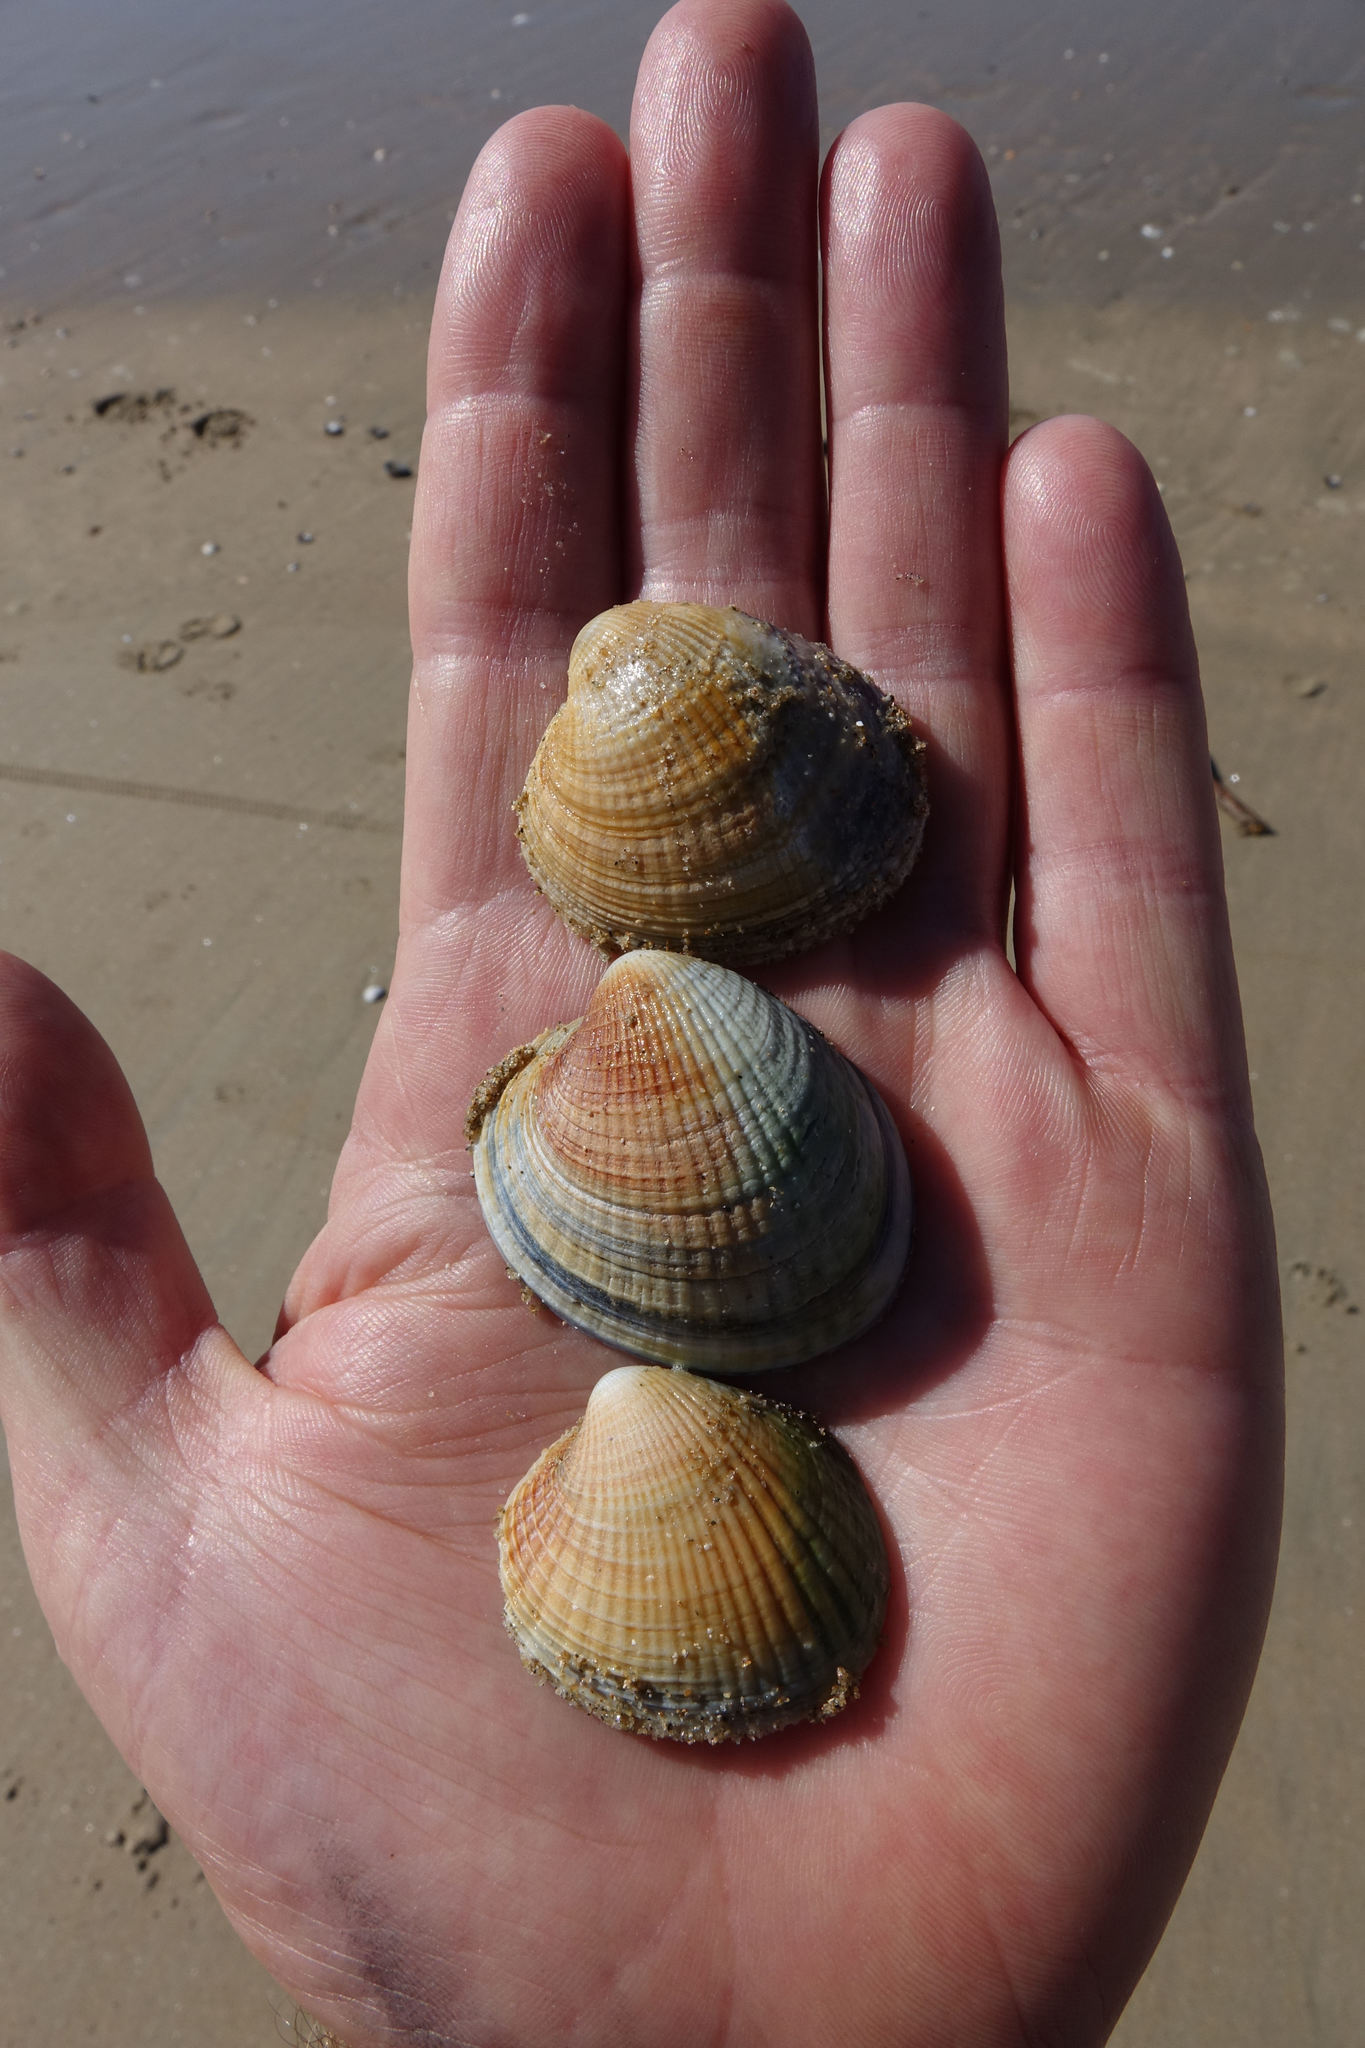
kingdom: Animalia
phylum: Mollusca
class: Bivalvia
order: Venerida
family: Veneridae
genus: Austrovenus
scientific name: Austrovenus stutchburyi
